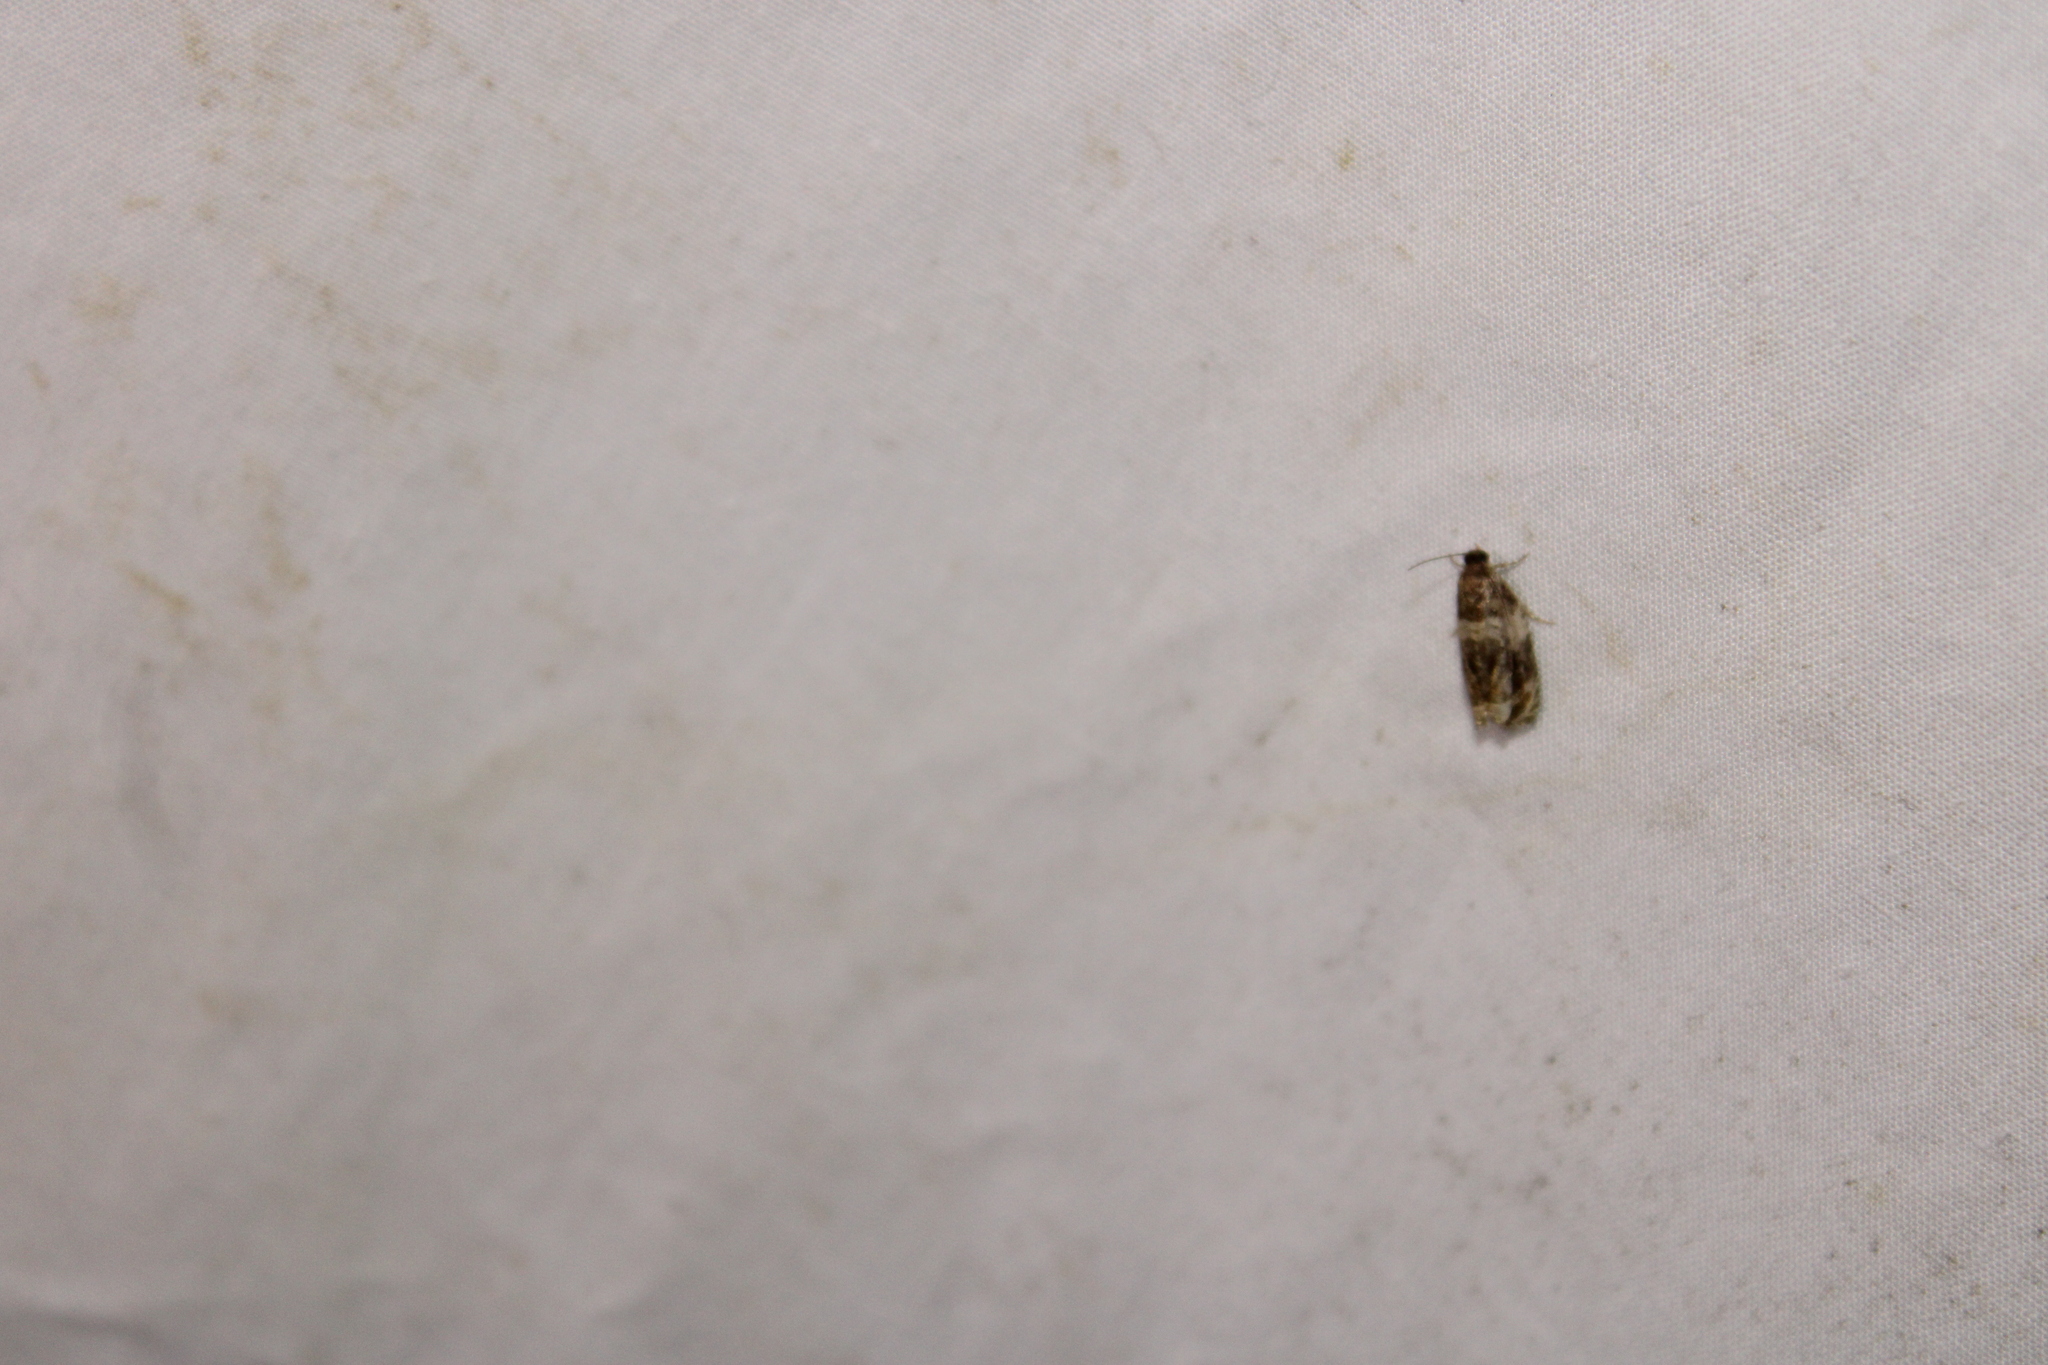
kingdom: Animalia
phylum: Arthropoda
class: Insecta
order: Lepidoptera
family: Tortricidae
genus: Olethreutes
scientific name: Olethreutes fasciatana
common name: Banded olethreutes moth
